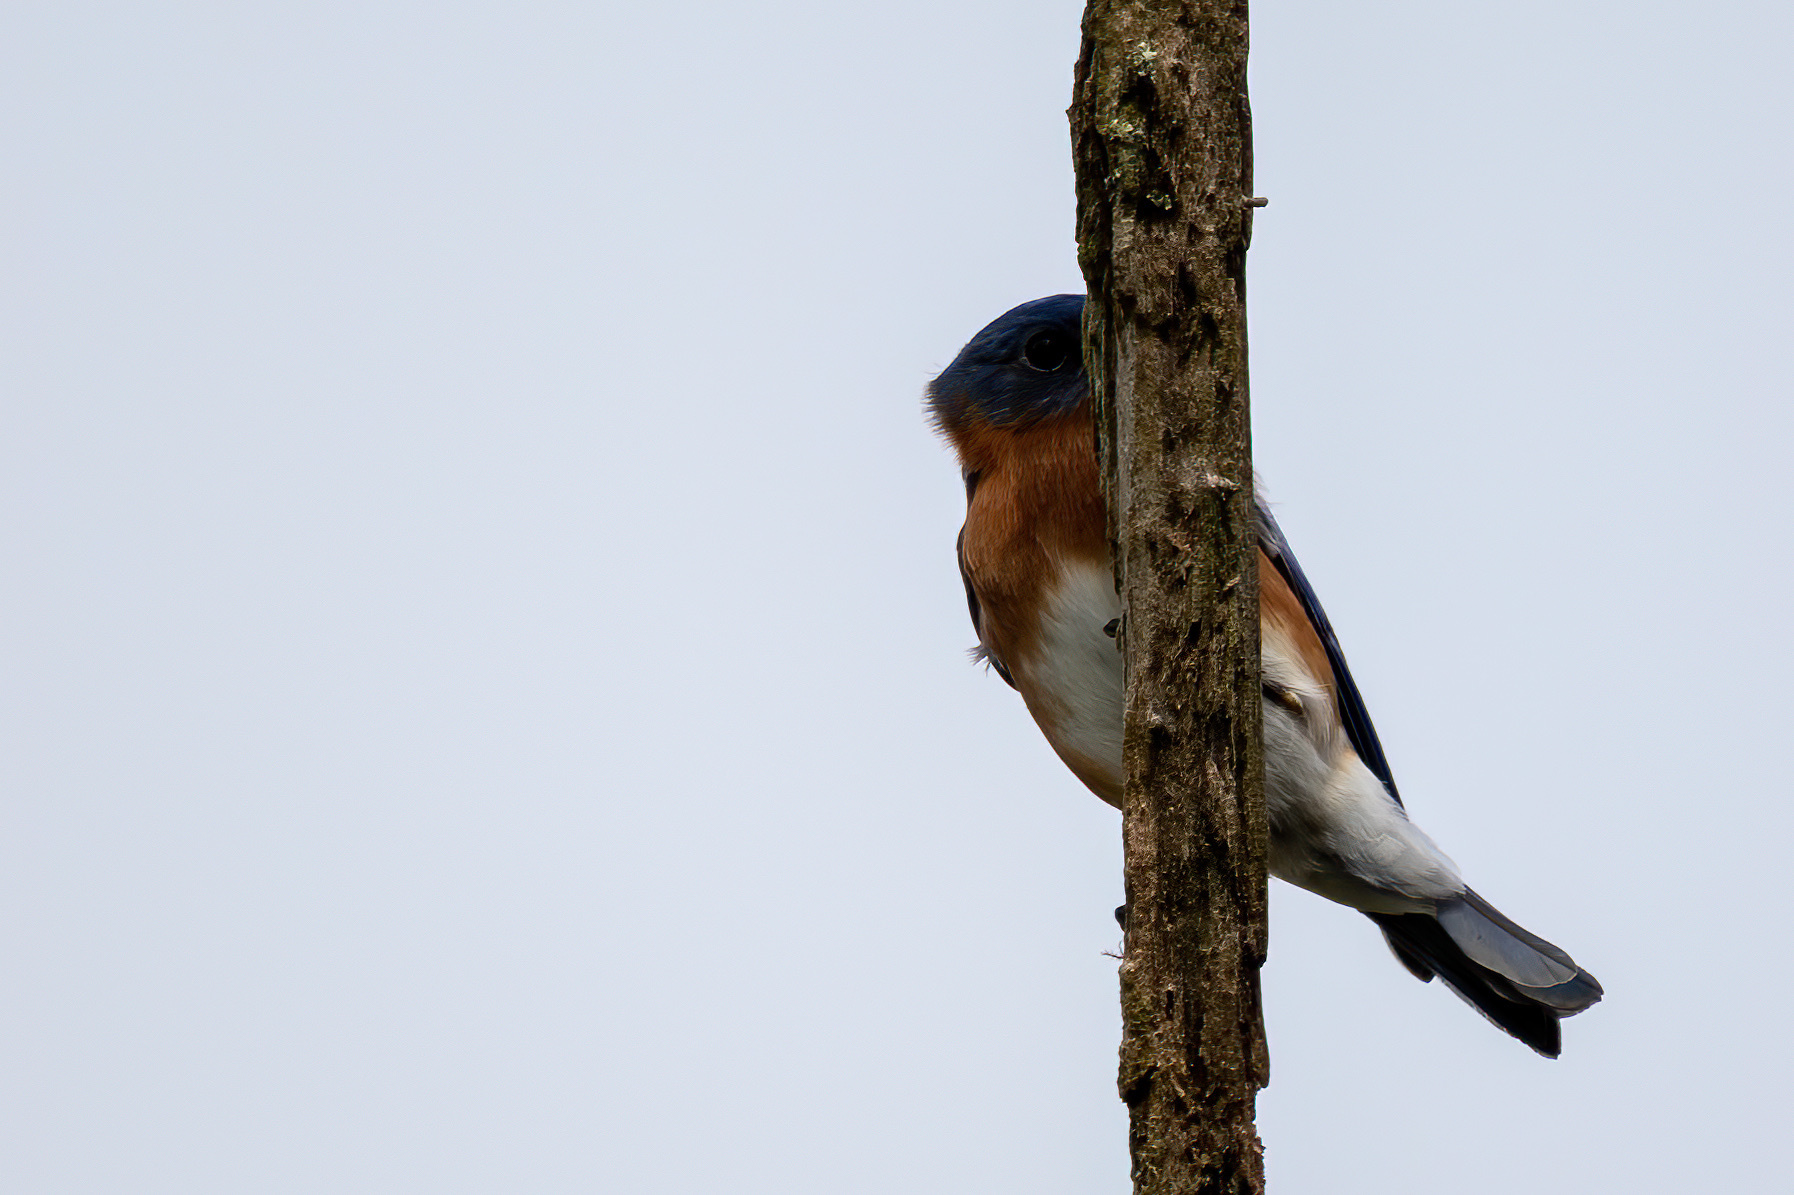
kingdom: Animalia
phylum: Chordata
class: Aves
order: Passeriformes
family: Turdidae
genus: Sialia
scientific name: Sialia sialis
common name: Eastern bluebird
